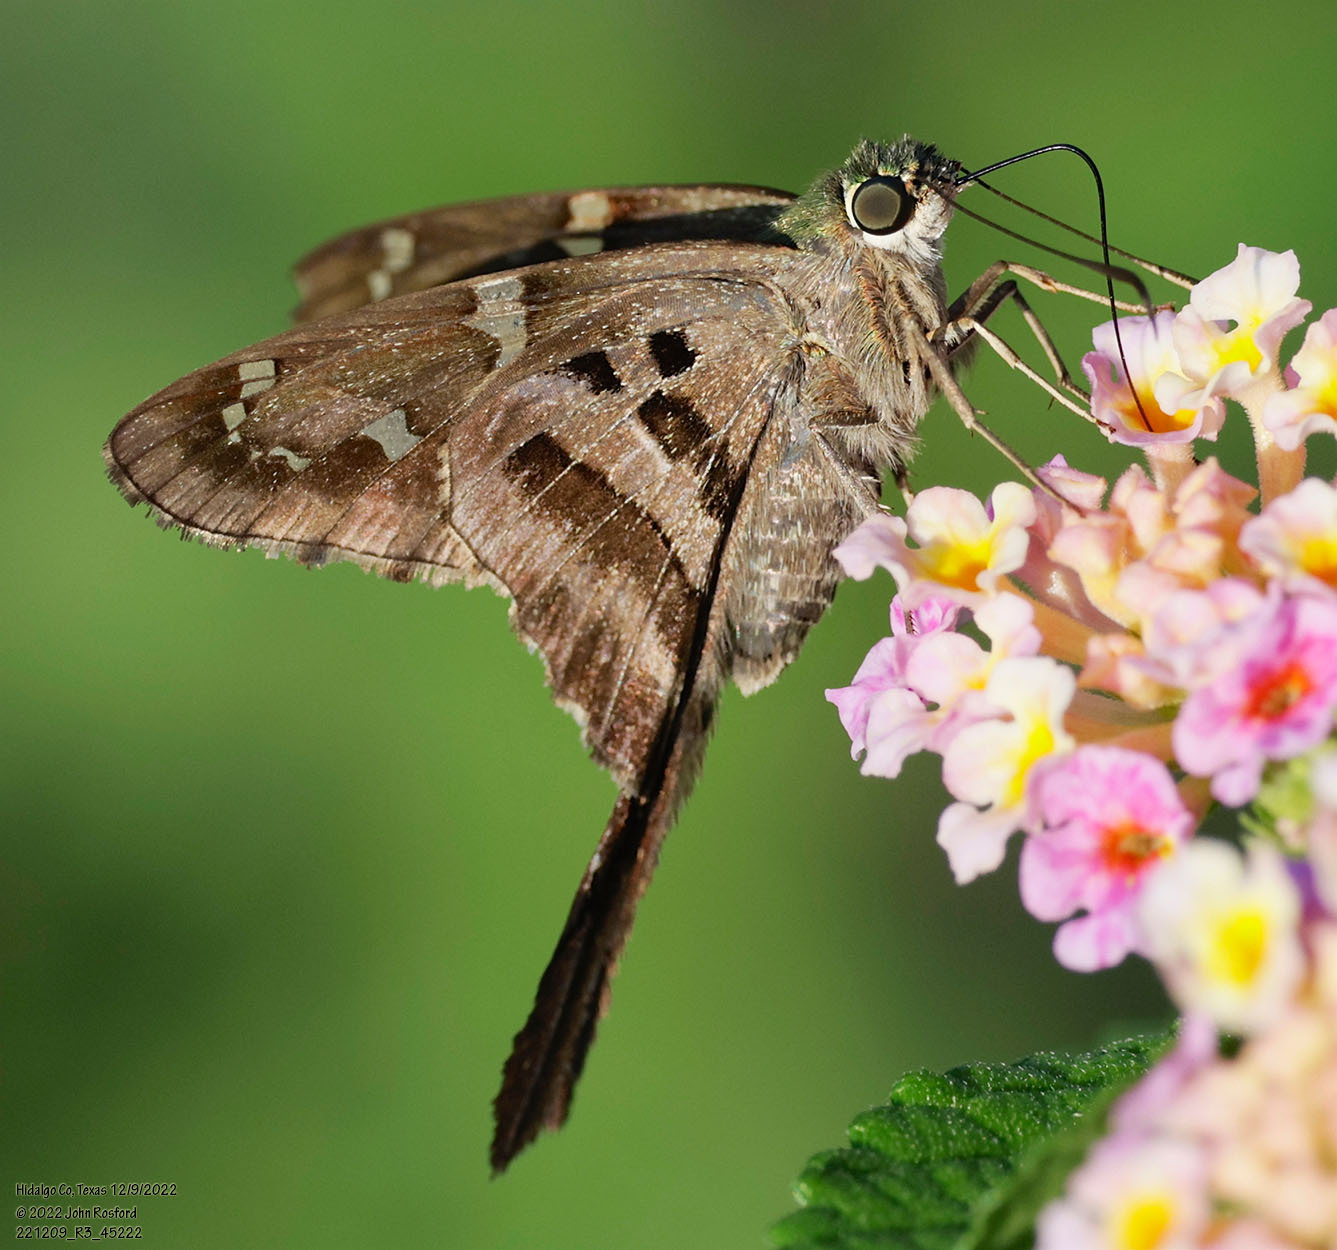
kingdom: Animalia
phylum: Arthropoda
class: Insecta
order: Lepidoptera
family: Hesperiidae
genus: Urbanus
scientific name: Urbanus proteus
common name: Long-tailed skipper
